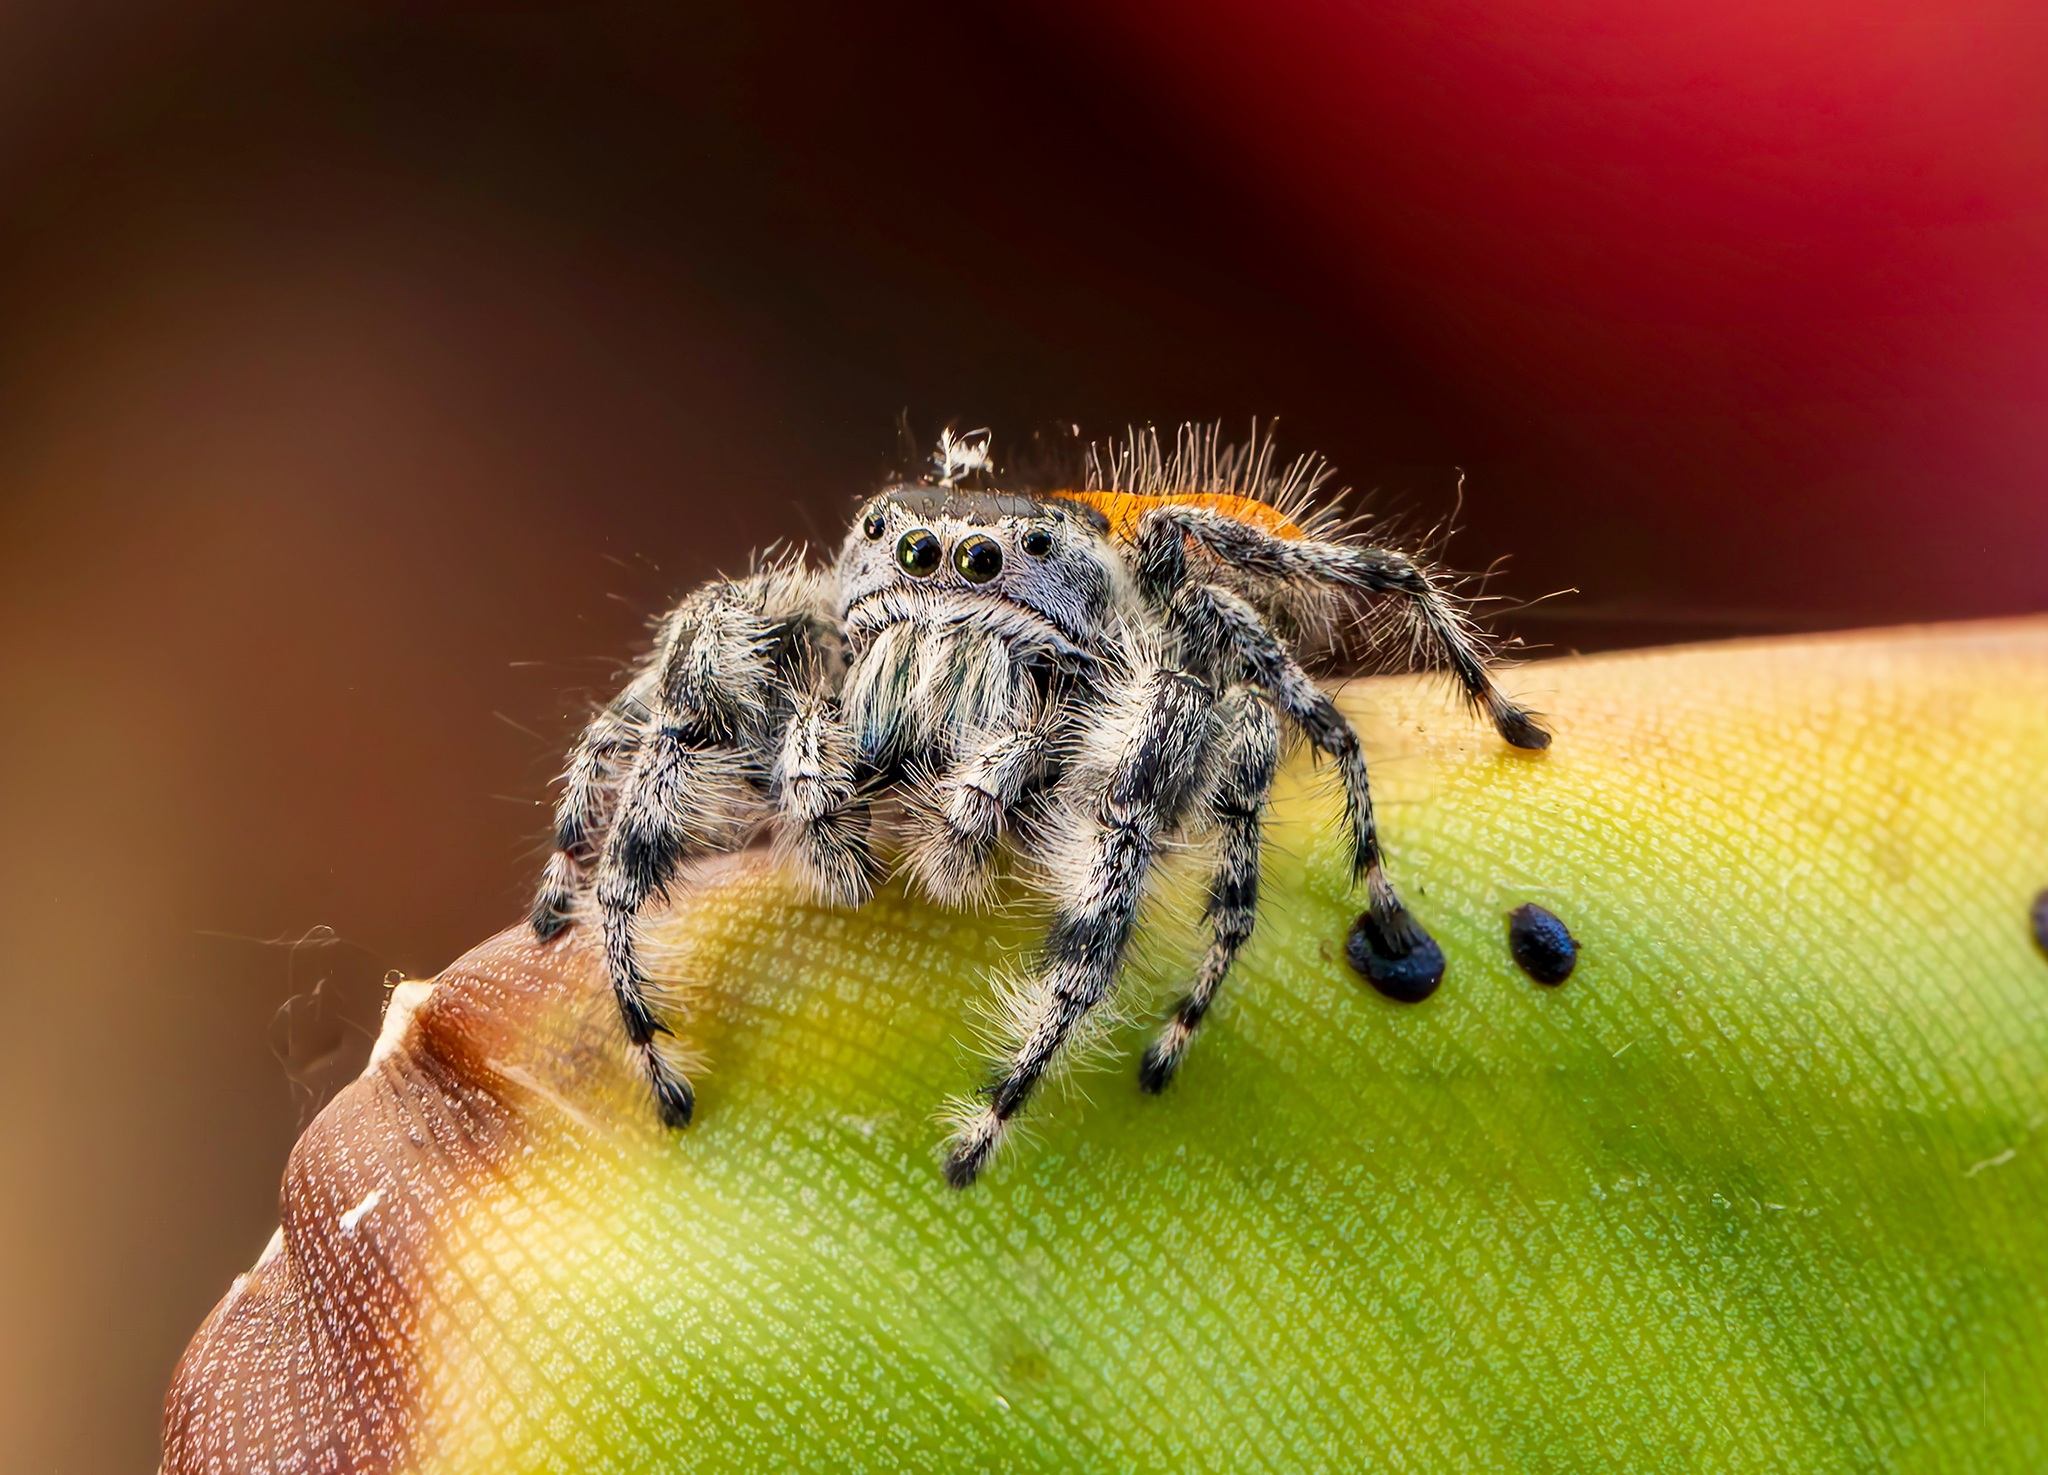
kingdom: Animalia
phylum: Arthropoda
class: Arachnida
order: Araneae
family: Salticidae
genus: Phidippus
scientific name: Phidippus adumbratus
